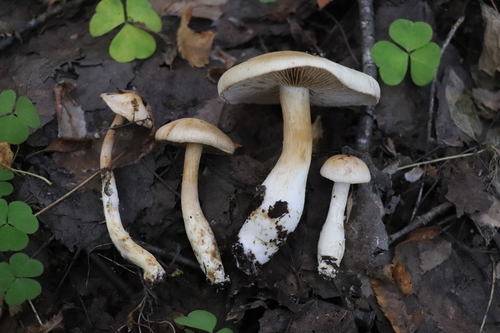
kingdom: Fungi
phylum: Basidiomycota
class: Agaricomycetes
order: Agaricales
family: Cortinariaceae
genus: Phlegmacium
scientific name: Phlegmacium argutum
